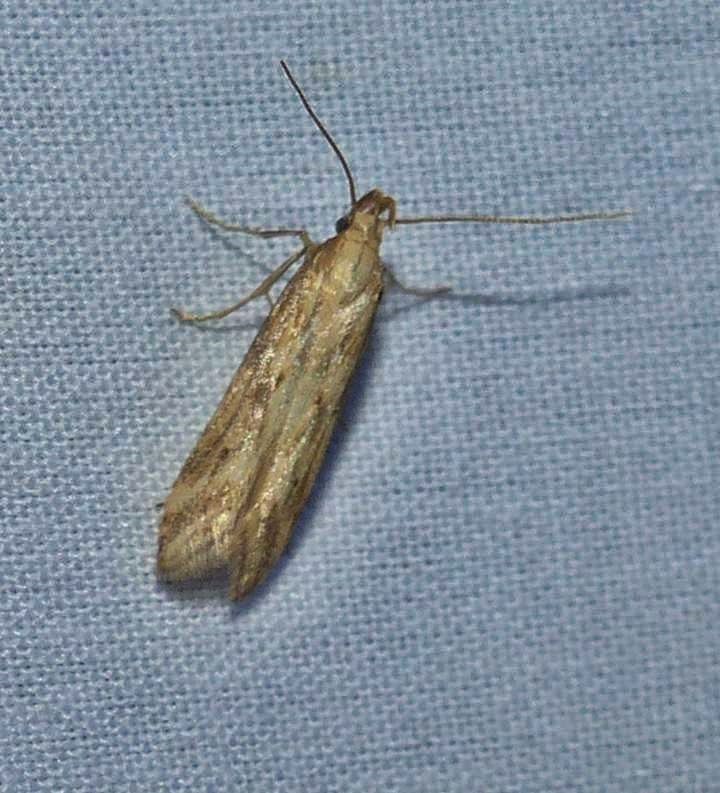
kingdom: Animalia
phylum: Arthropoda
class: Insecta
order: Lepidoptera
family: Gelechiidae
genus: Metzneria
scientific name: Metzneria lappella
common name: Burdock neb
